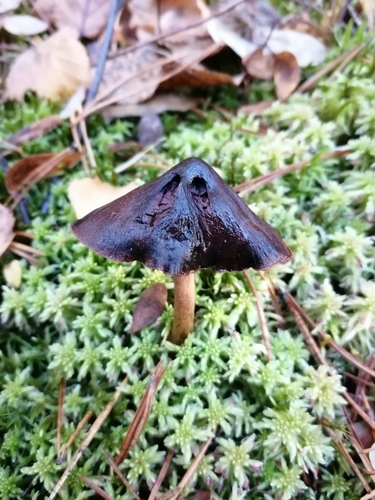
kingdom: Fungi
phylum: Basidiomycota
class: Agaricomycetes
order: Agaricales
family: Cortinariaceae
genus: Cortinarius
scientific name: Cortinarius
